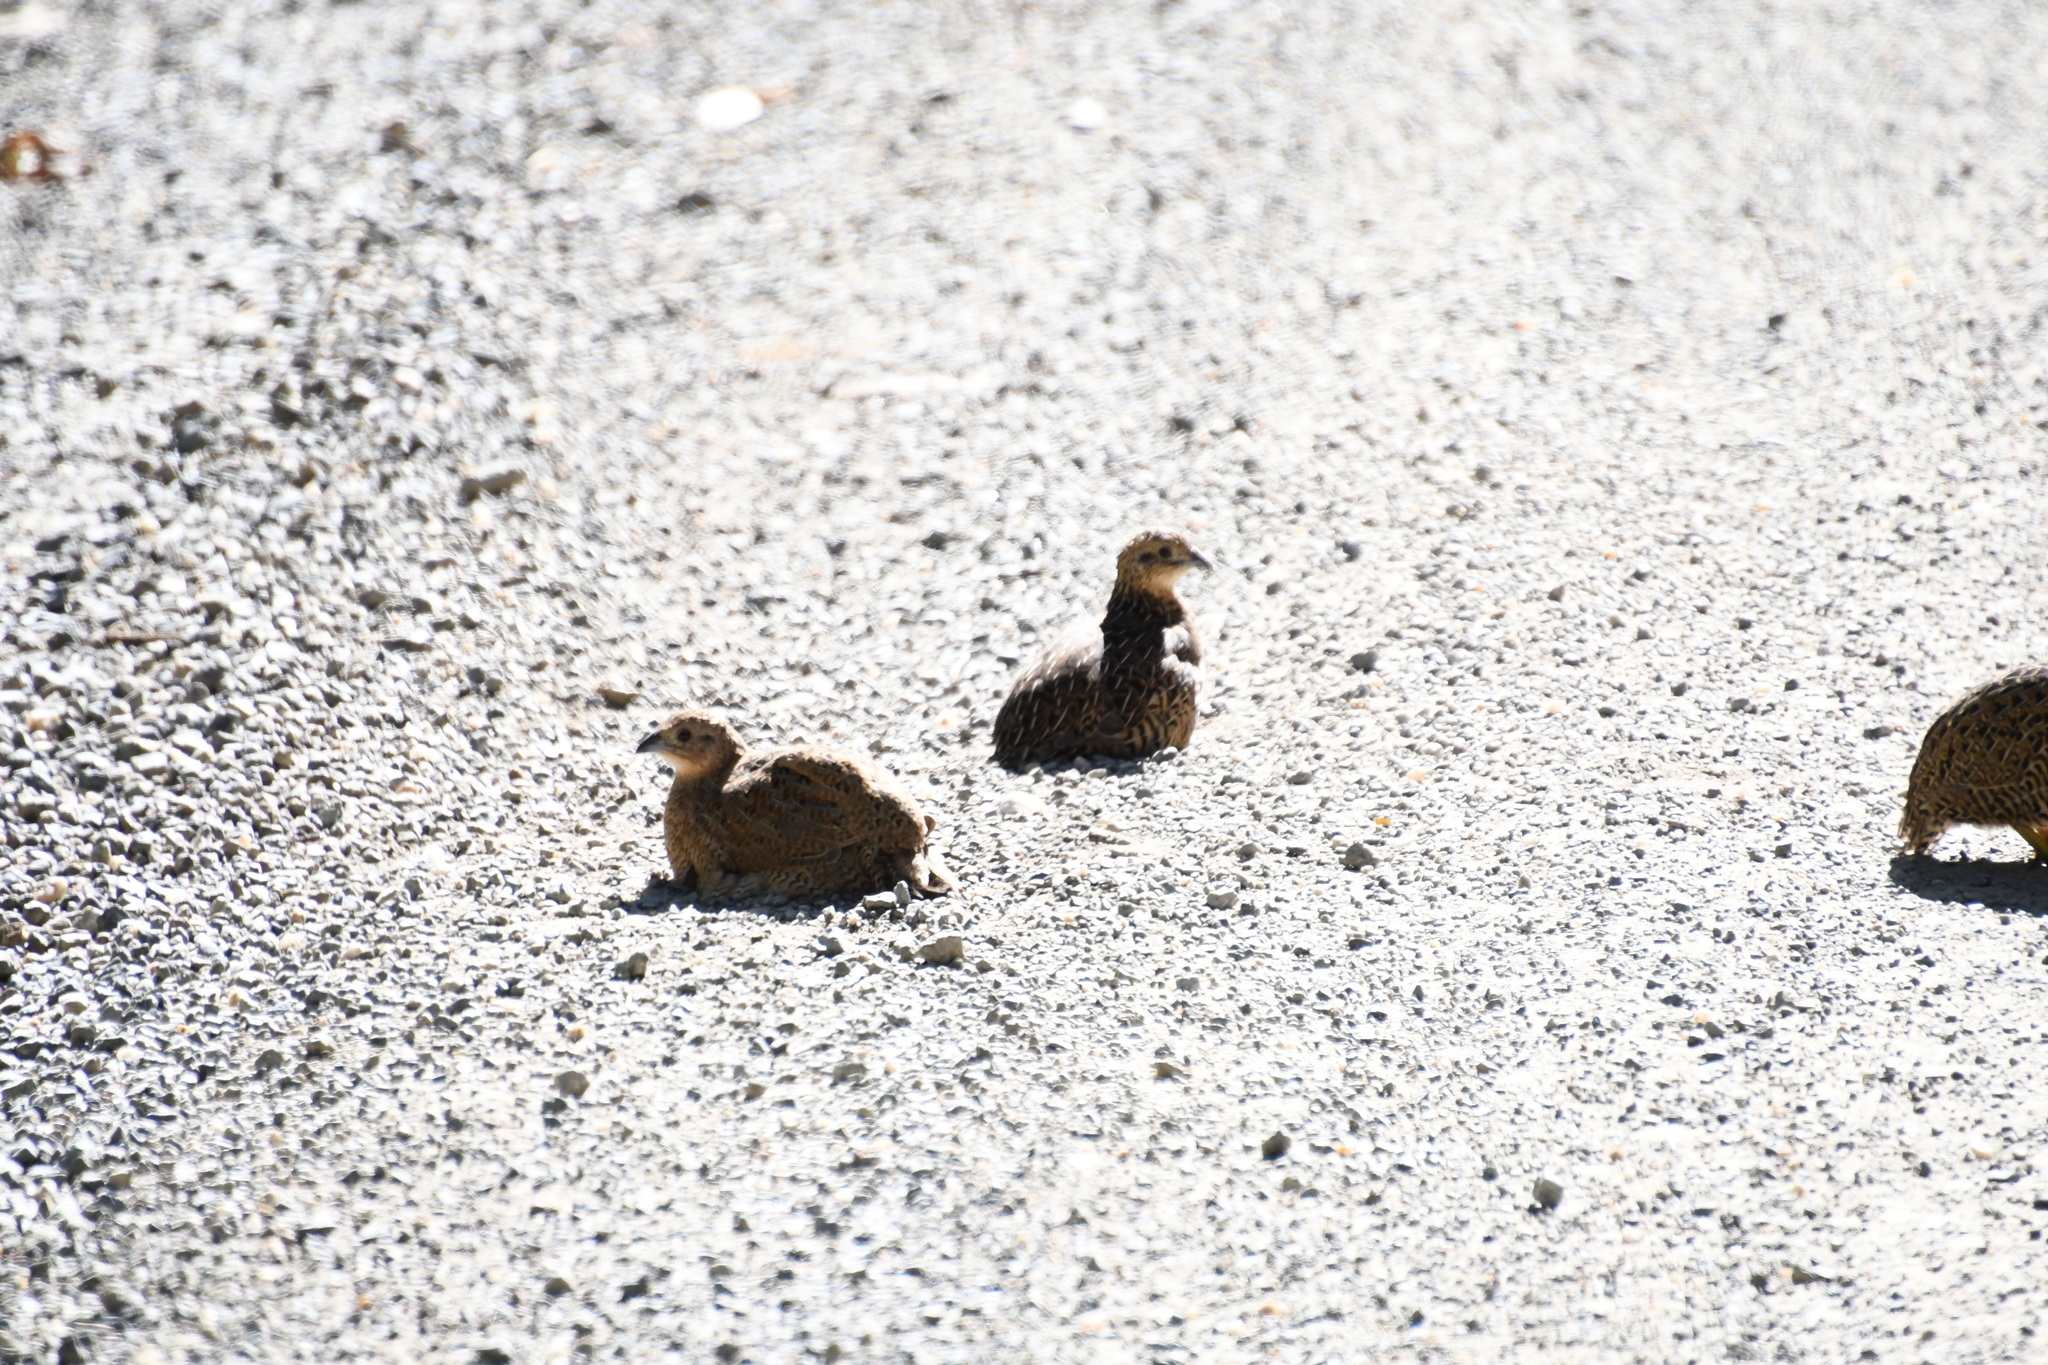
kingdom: Animalia
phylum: Chordata
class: Aves
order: Galliformes
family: Phasianidae
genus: Synoicus
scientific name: Synoicus ypsilophorus
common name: Brown quail
